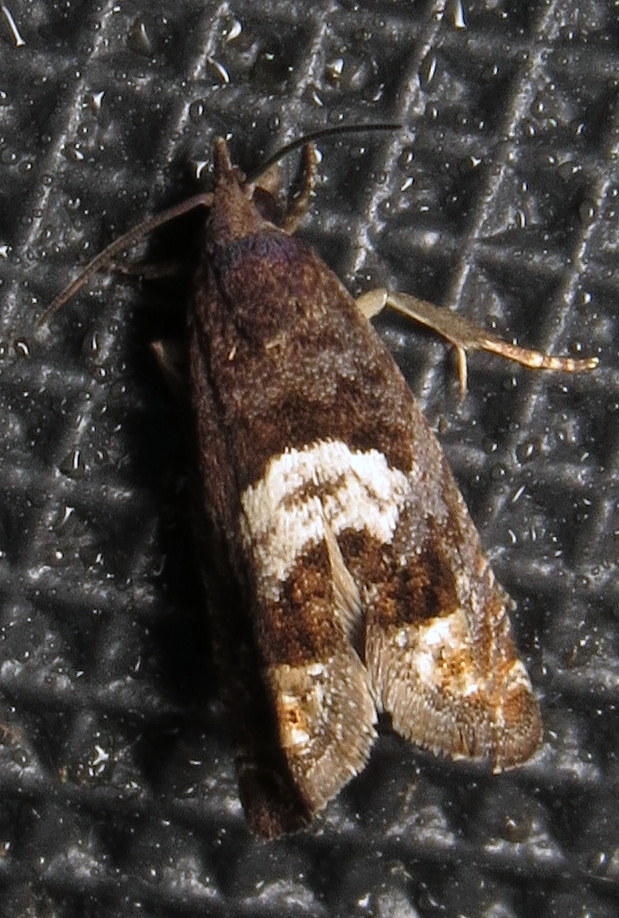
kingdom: Animalia
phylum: Arthropoda
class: Insecta
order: Lepidoptera
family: Tortricidae
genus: Eucosma
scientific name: Eucosma parmatana
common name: Aster eucosma moth
